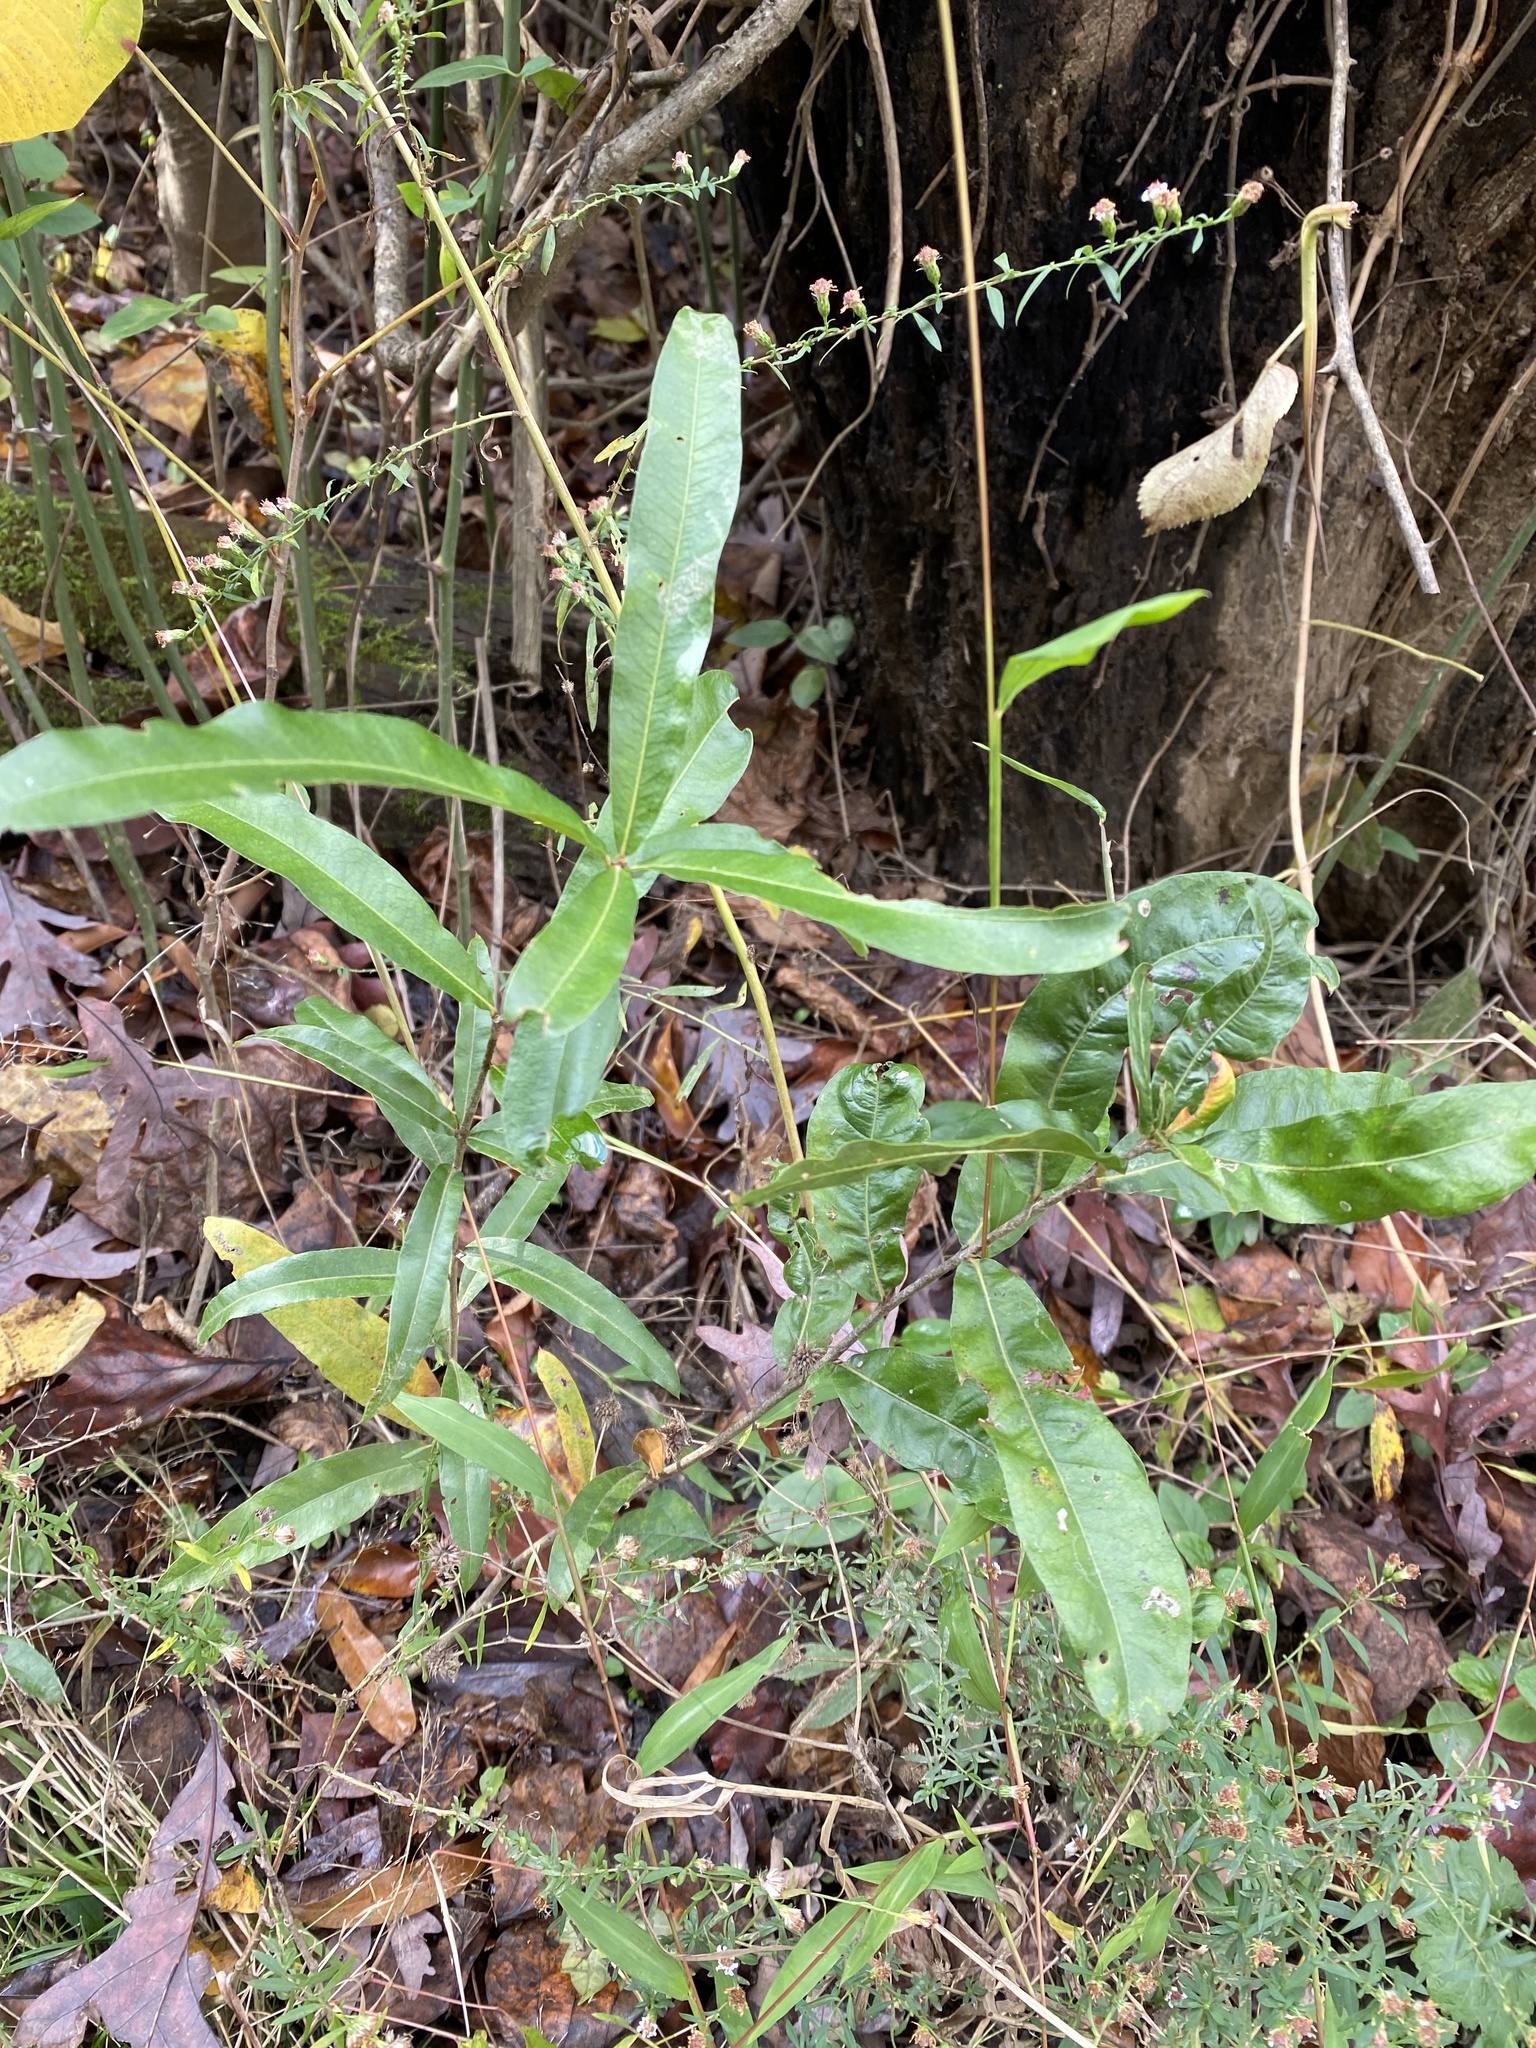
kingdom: Plantae
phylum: Tracheophyta
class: Magnoliopsida
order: Fagales
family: Fagaceae
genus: Quercus
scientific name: Quercus phellos
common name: Willow oak
